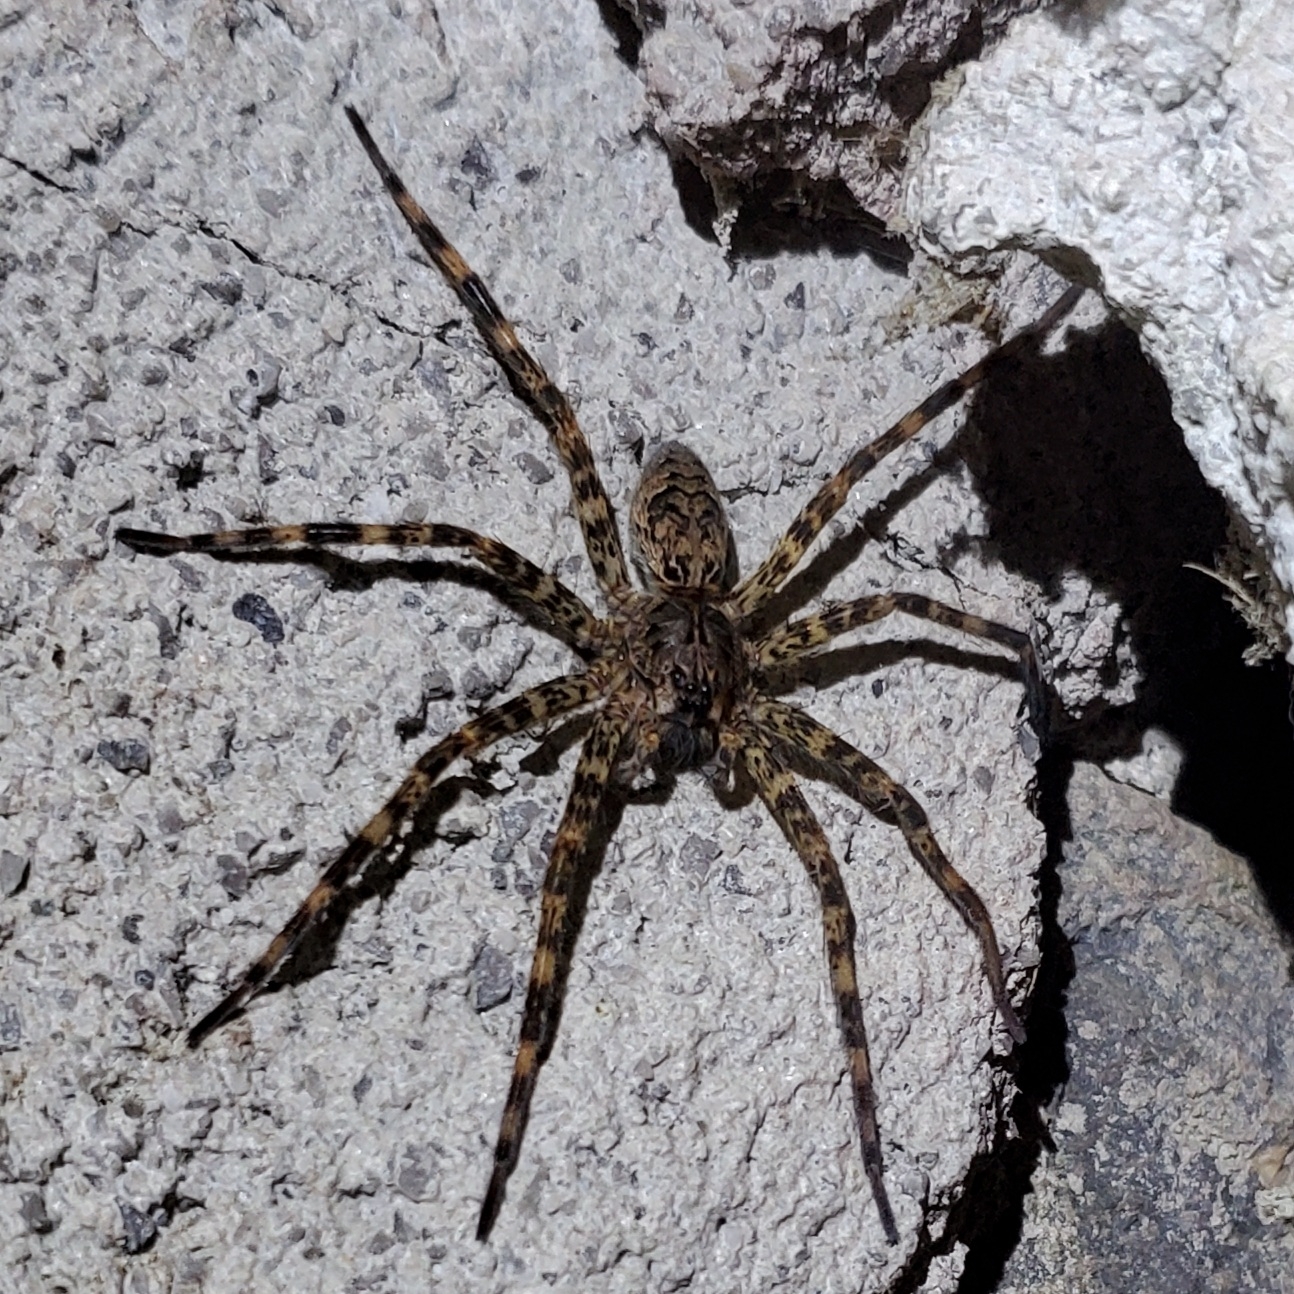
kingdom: Animalia
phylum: Arthropoda
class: Arachnida
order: Araneae
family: Pisauridae
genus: Dolomedes
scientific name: Dolomedes tenebrosus
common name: Dark fishing spider
